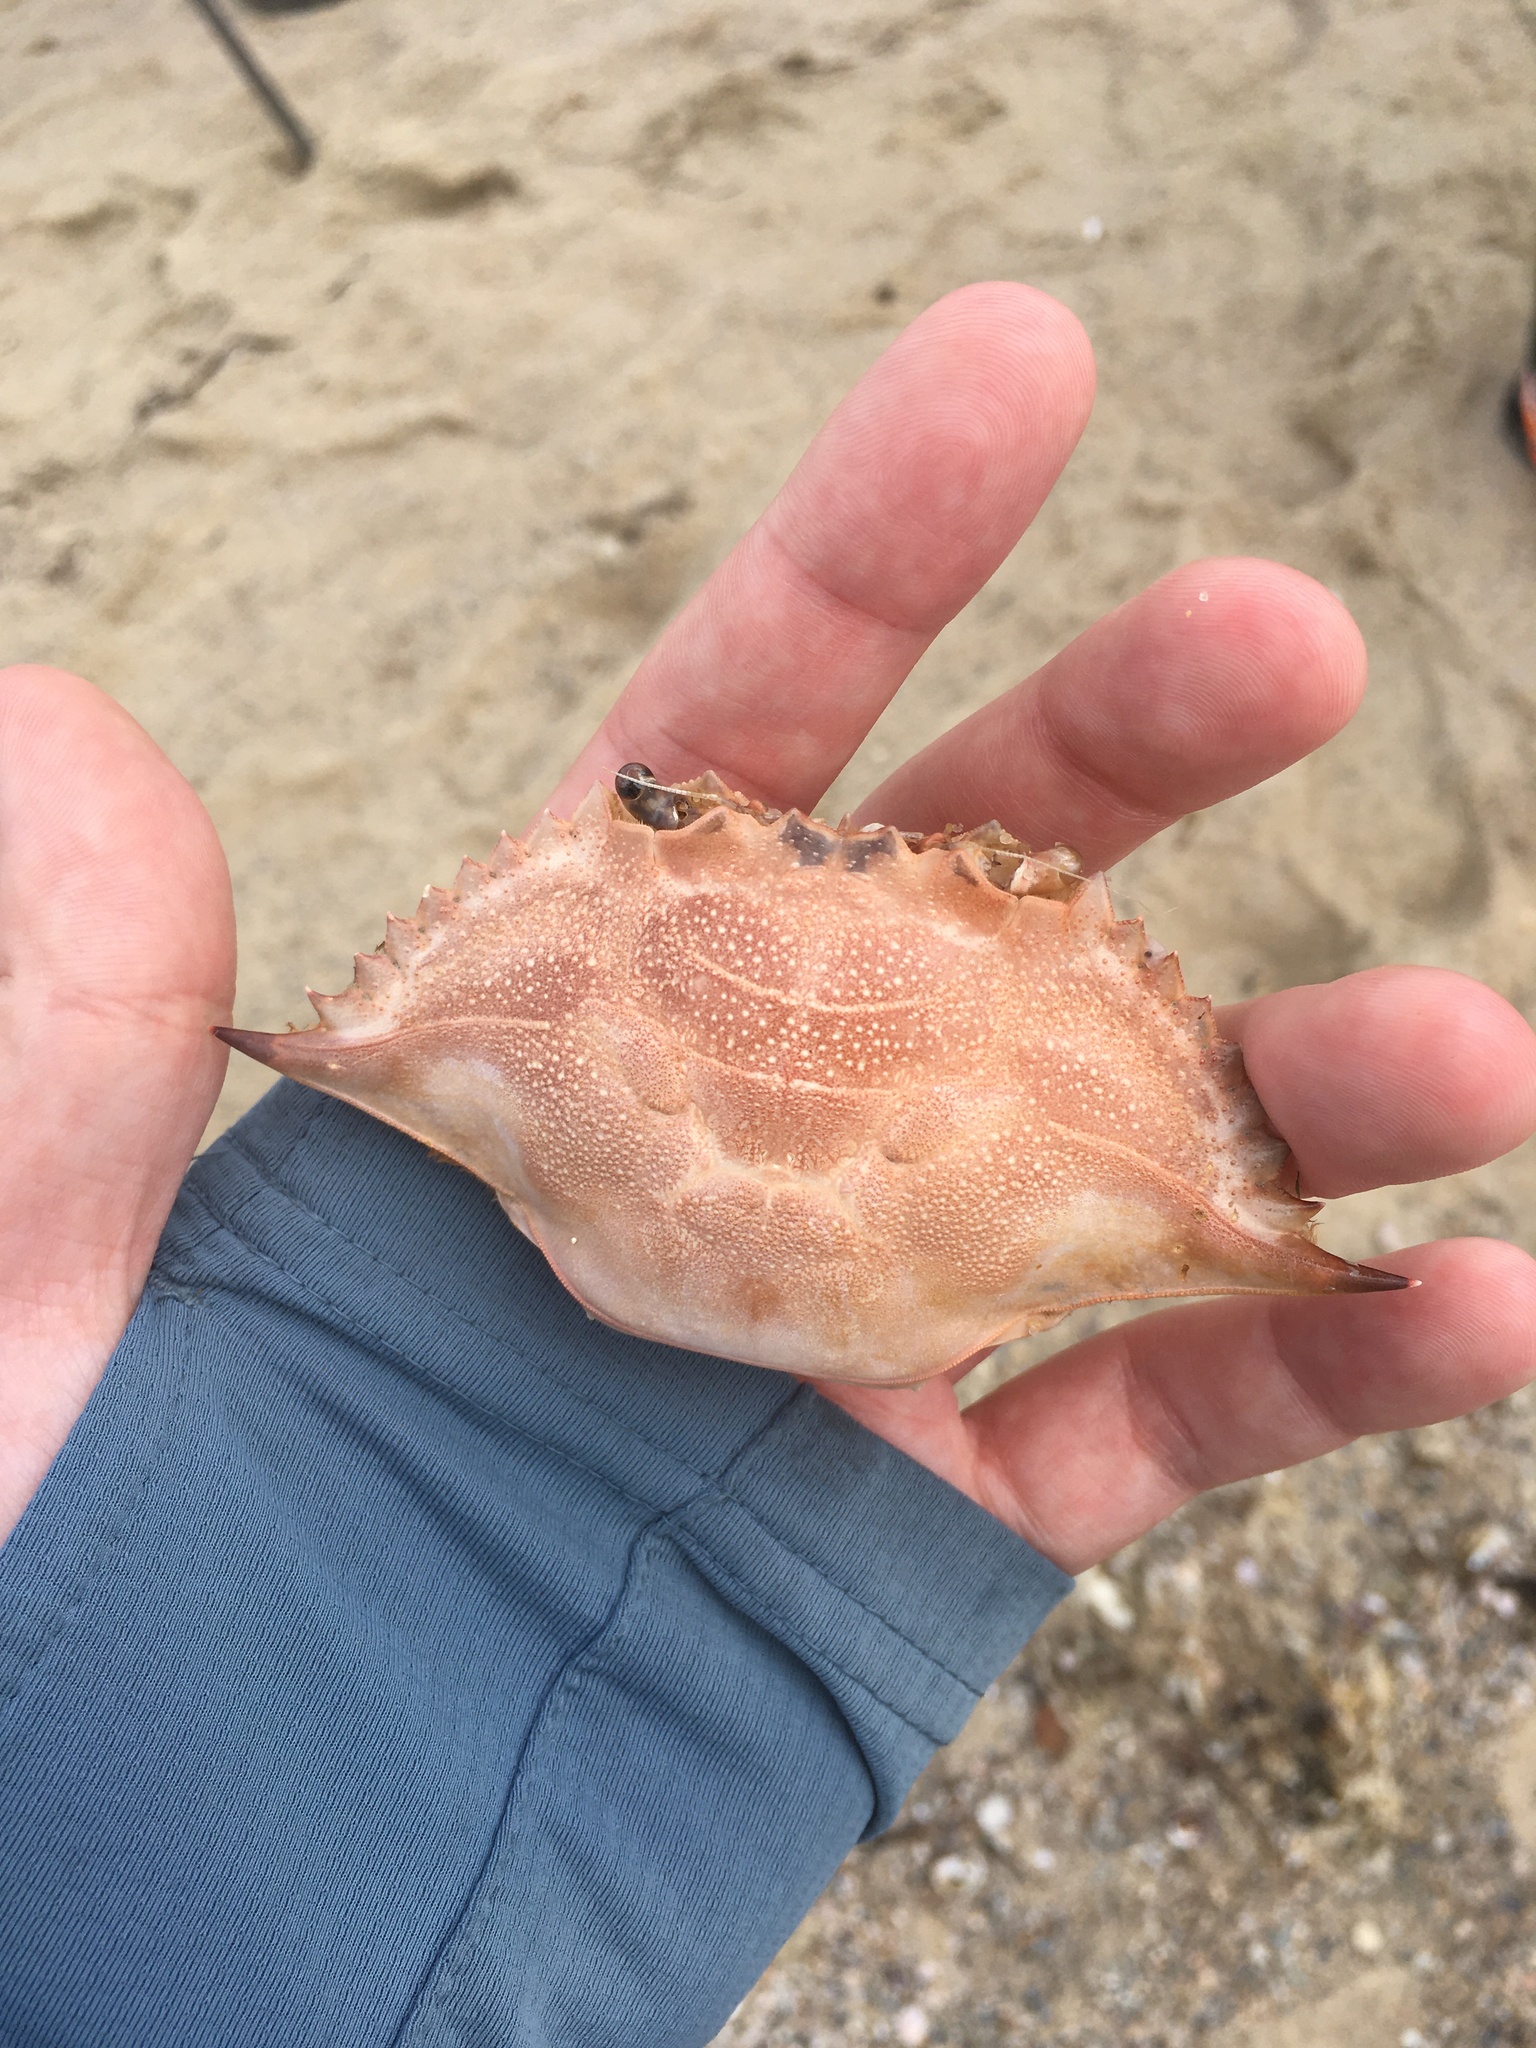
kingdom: Animalia
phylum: Arthropoda
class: Malacostraca
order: Decapoda
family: Portunidae
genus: Callinectes
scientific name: Callinectes sapidus
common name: Blue crab
